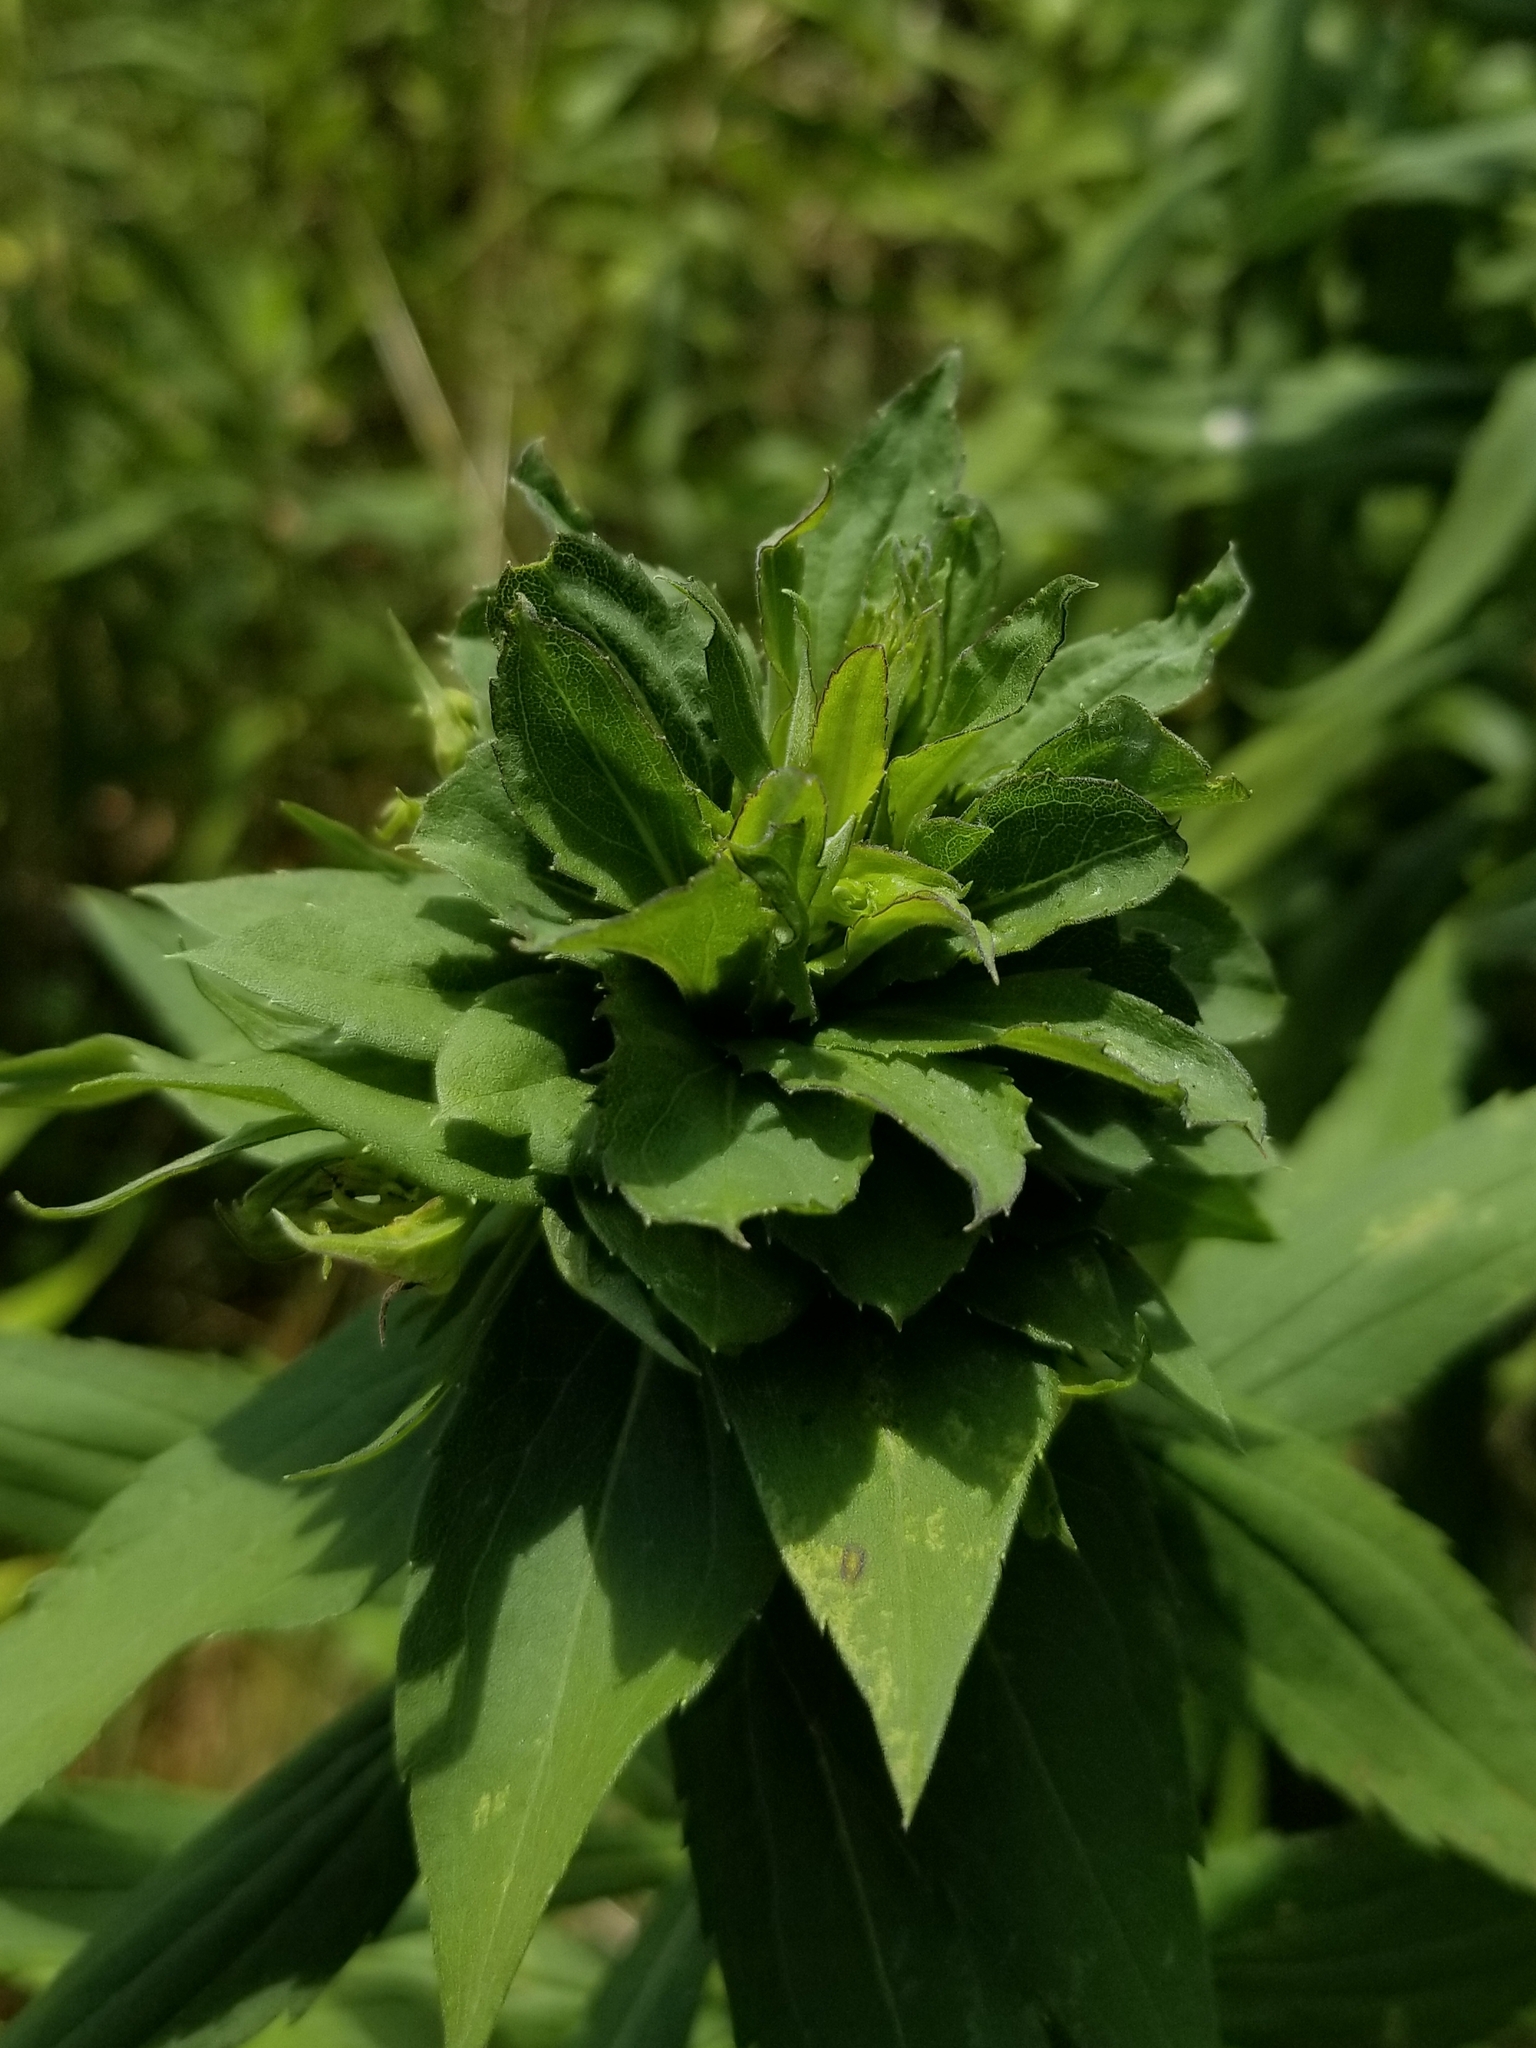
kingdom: Animalia
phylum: Arthropoda
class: Insecta
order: Diptera
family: Cecidomyiidae
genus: Rhopalomyia
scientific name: Rhopalomyia solidaginis
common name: Goldenrod bunch gall midge
